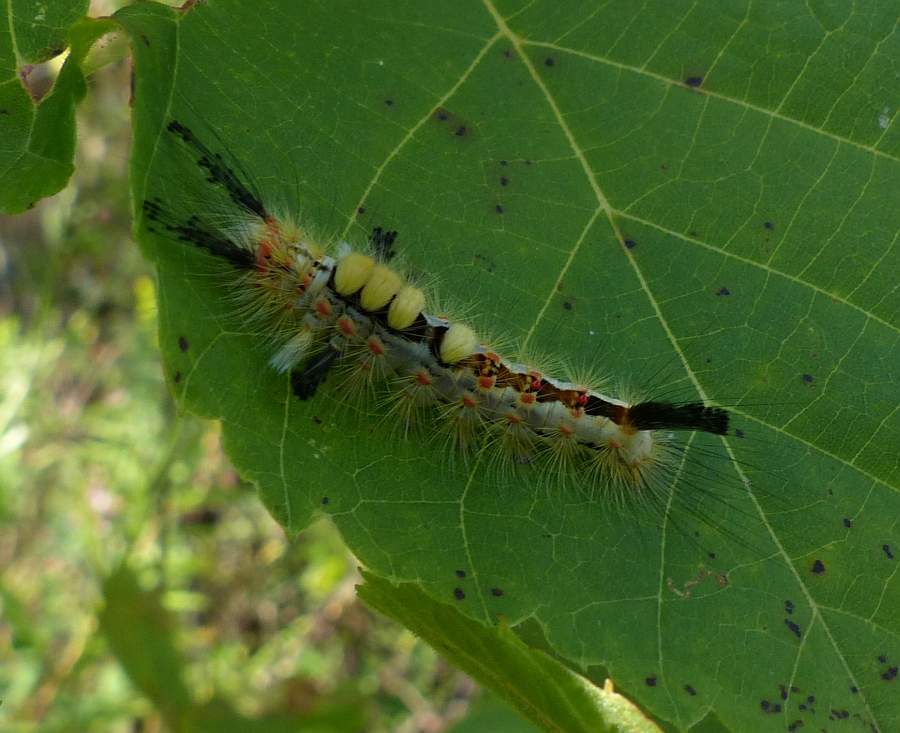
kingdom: Animalia
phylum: Arthropoda
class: Insecta
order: Lepidoptera
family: Erebidae
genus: Orgyia
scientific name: Orgyia antiqua
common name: Vapourer
